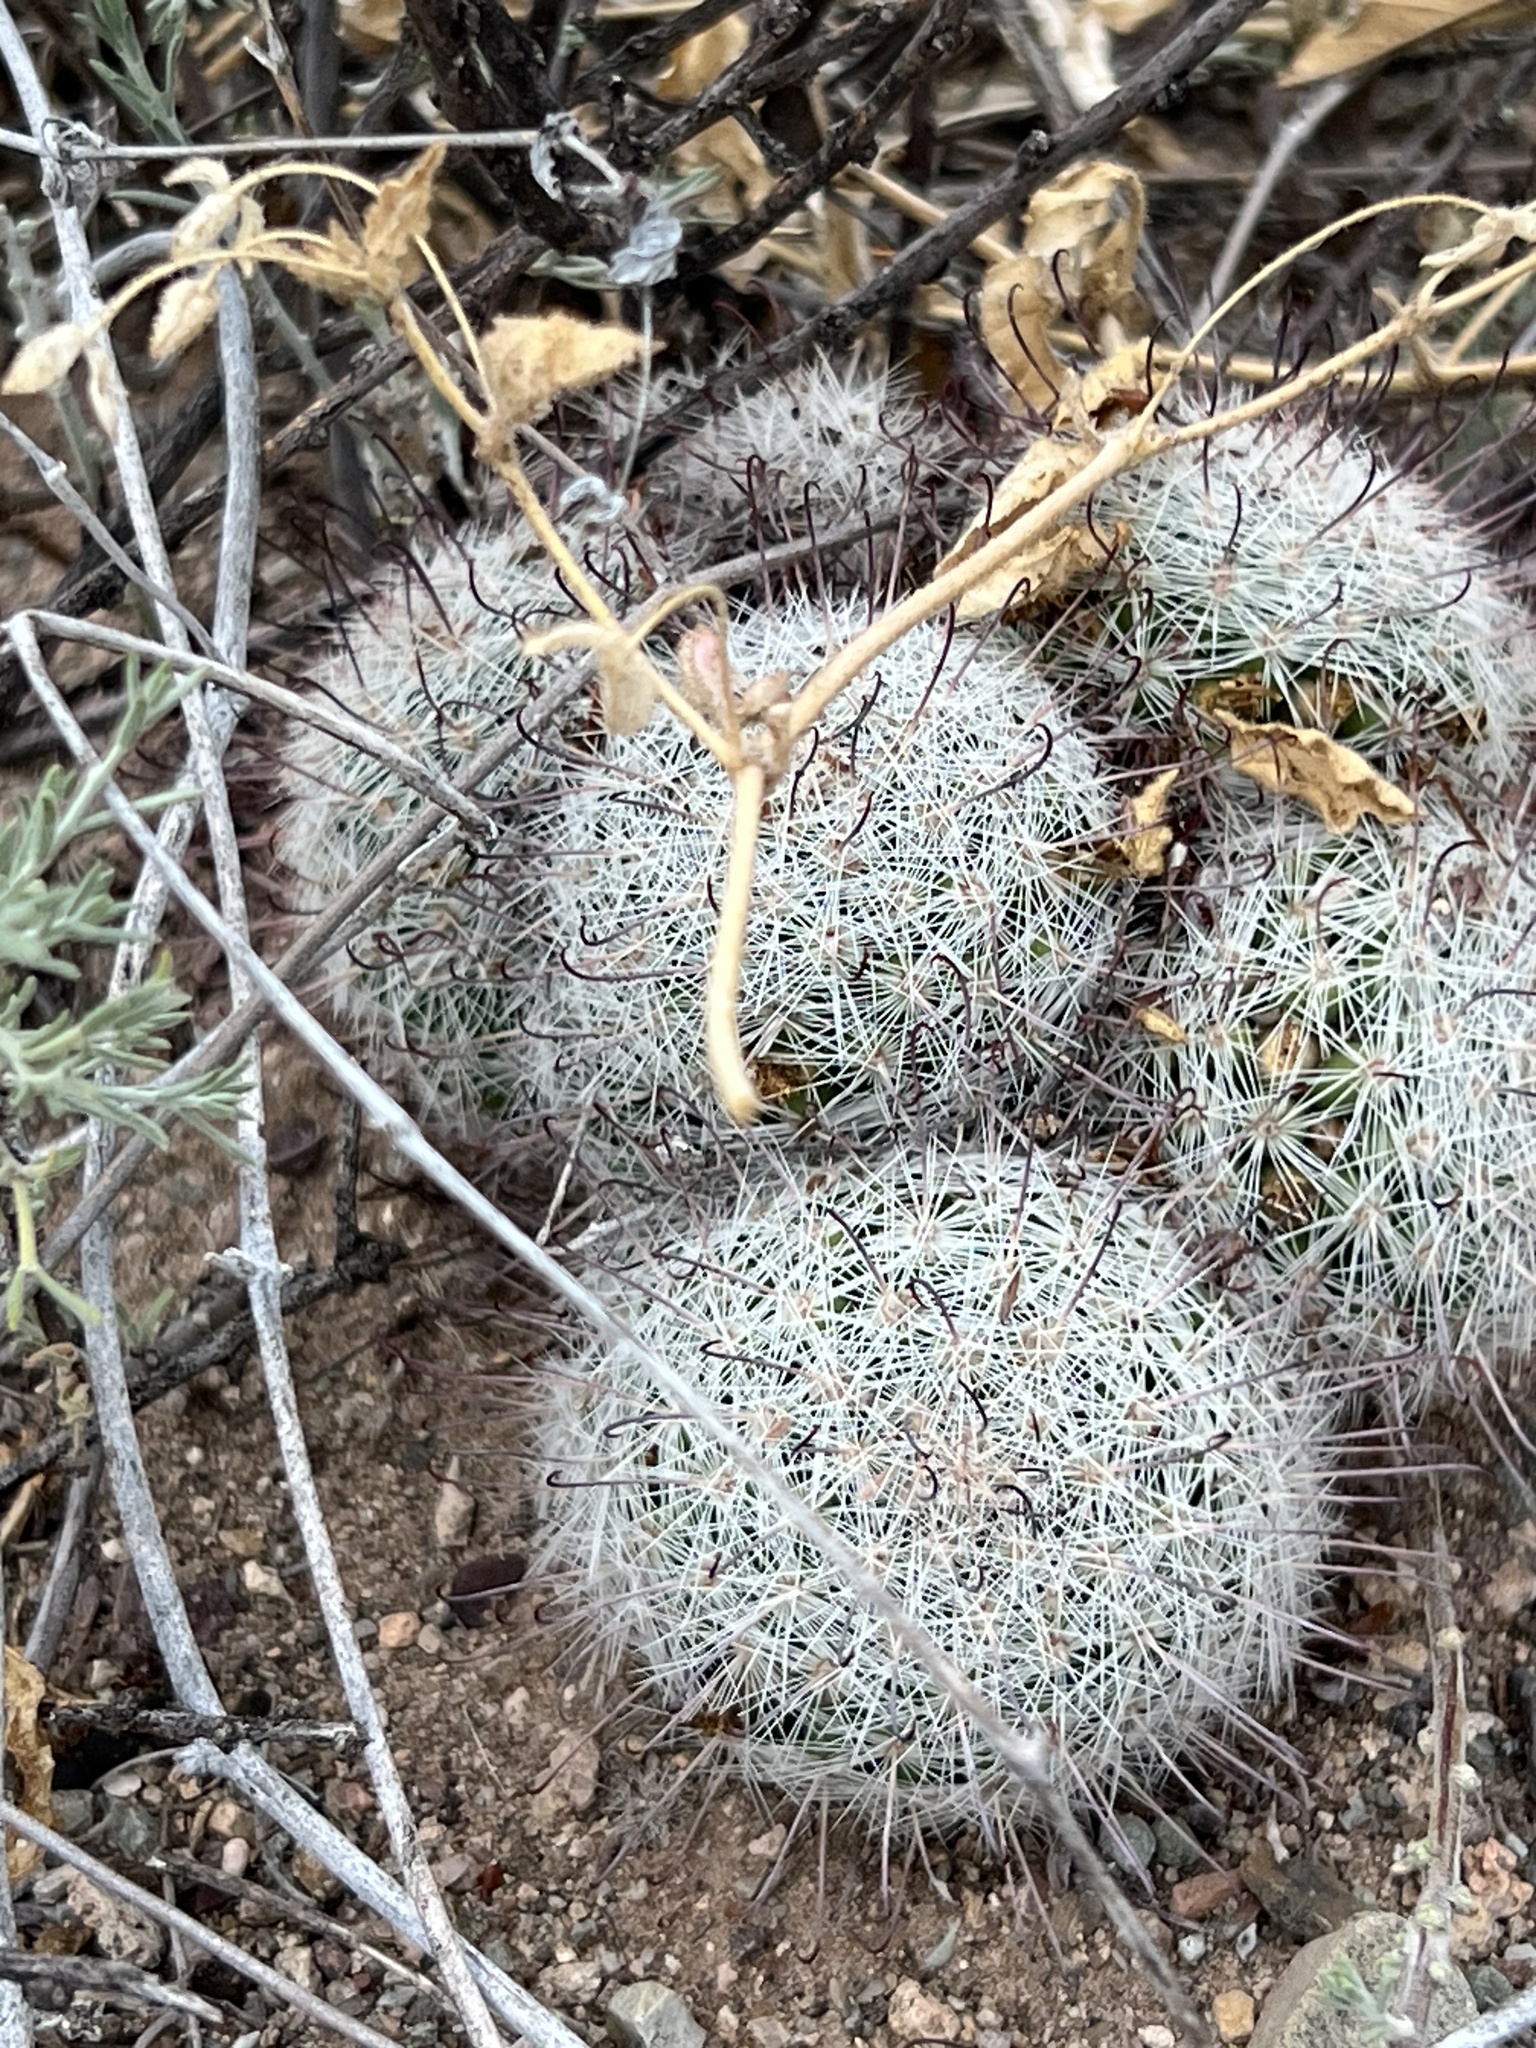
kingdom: Plantae
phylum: Tracheophyta
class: Magnoliopsida
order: Caryophyllales
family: Cactaceae
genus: Cochemiea
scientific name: Cochemiea grahamii
